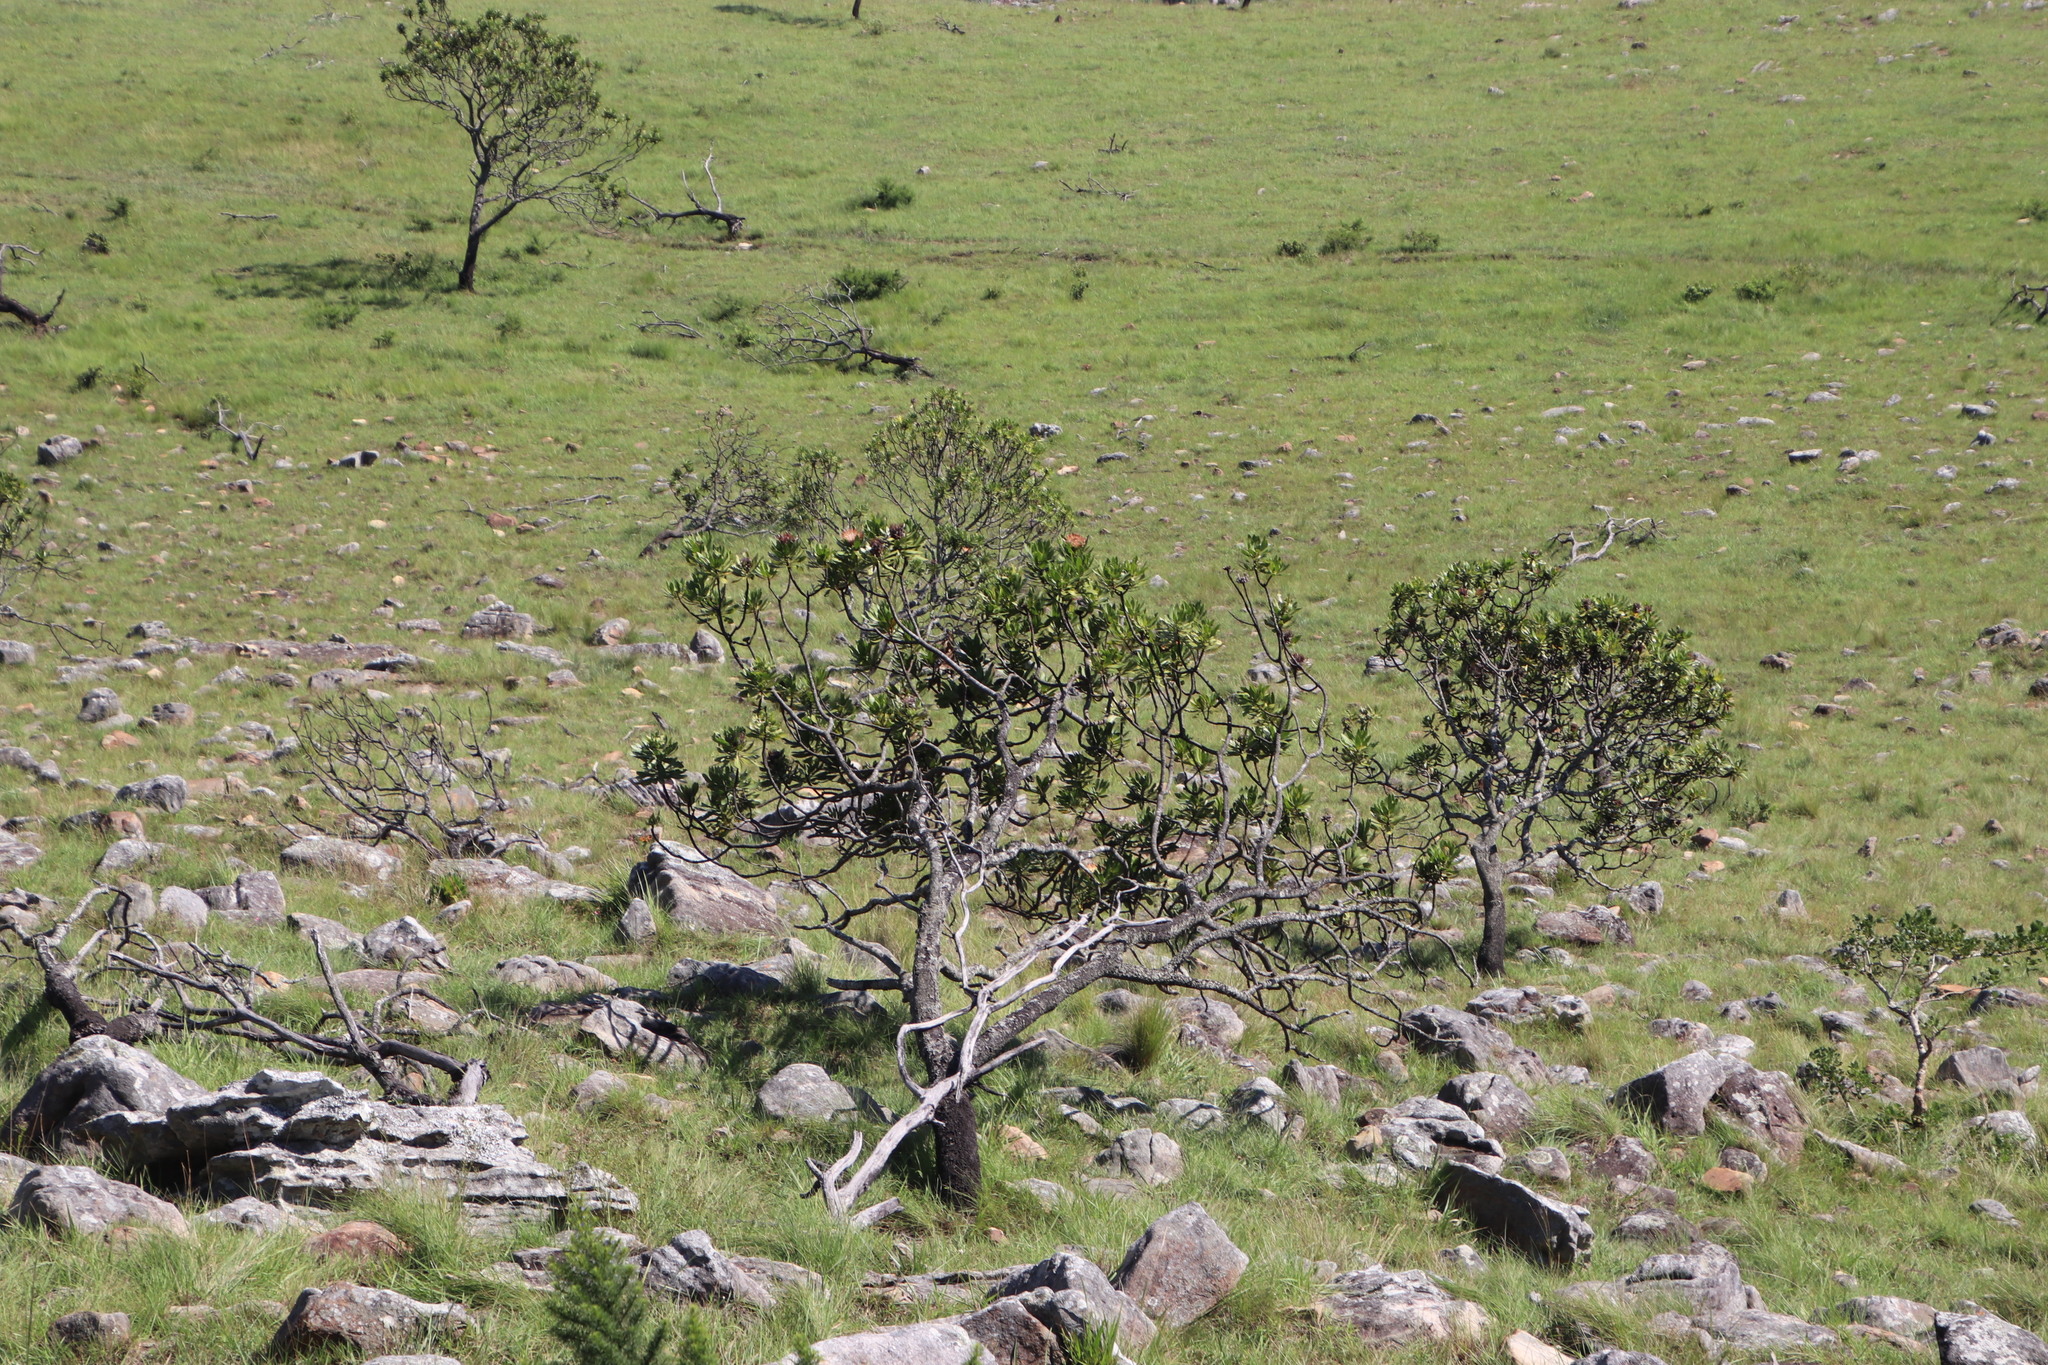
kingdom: Plantae
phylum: Tracheophyta
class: Magnoliopsida
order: Proteales
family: Proteaceae
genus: Protea
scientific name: Protea roupelliae
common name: Silver sugarbush
